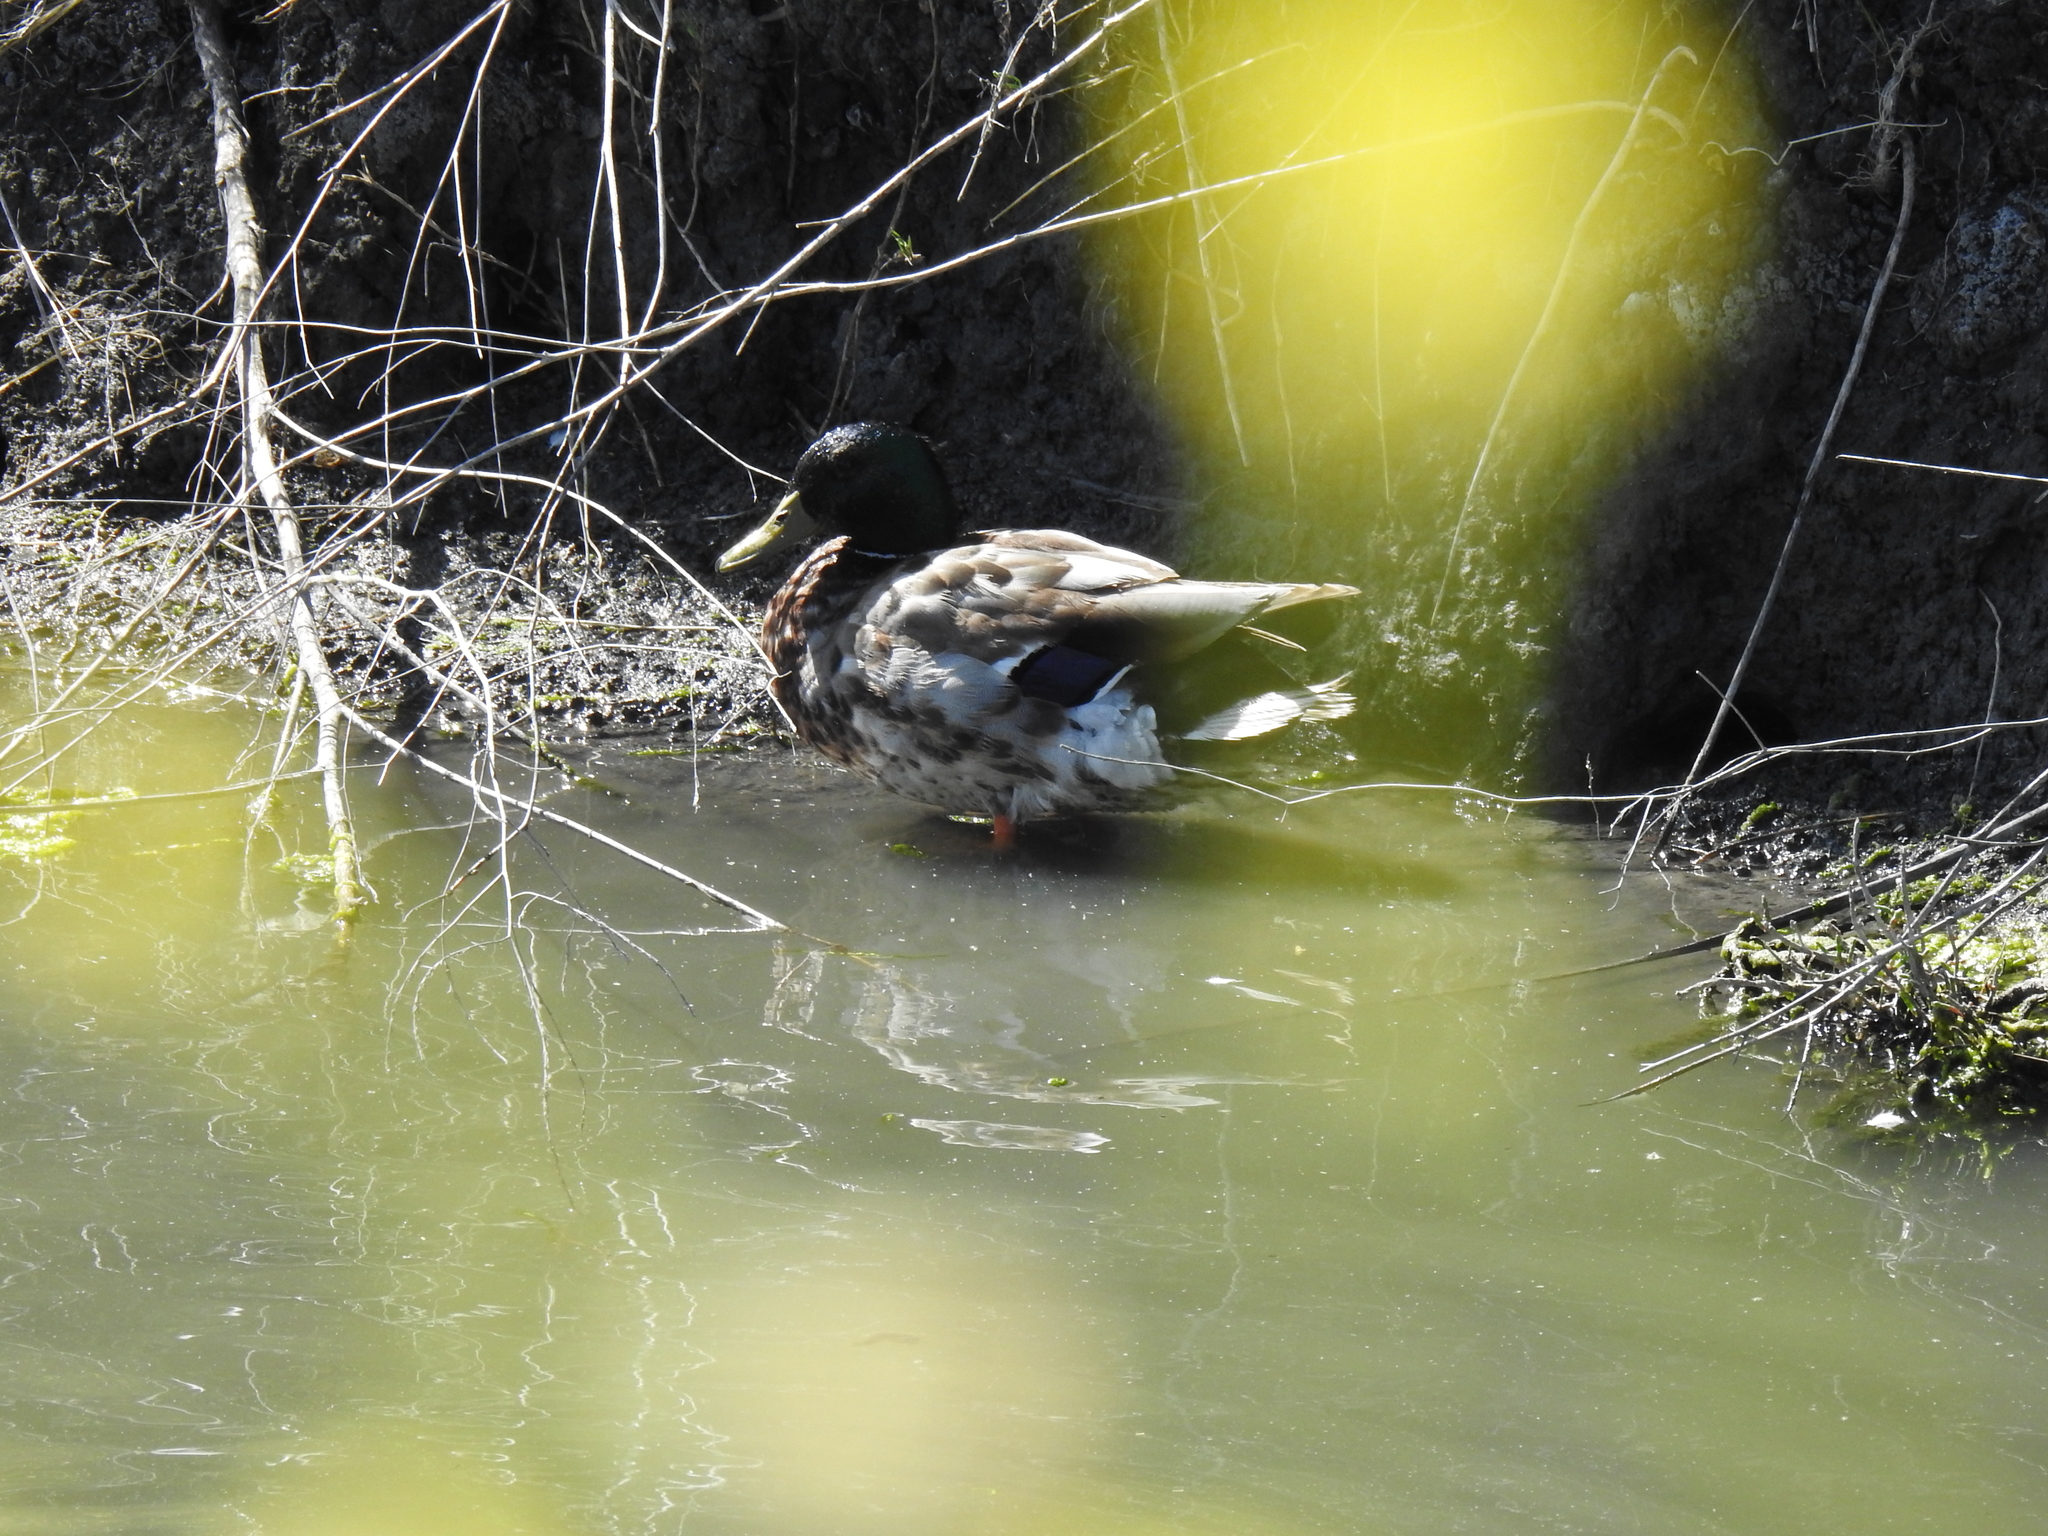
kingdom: Animalia
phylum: Chordata
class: Aves
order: Anseriformes
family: Anatidae
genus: Anas
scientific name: Anas platyrhynchos
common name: Mallard
